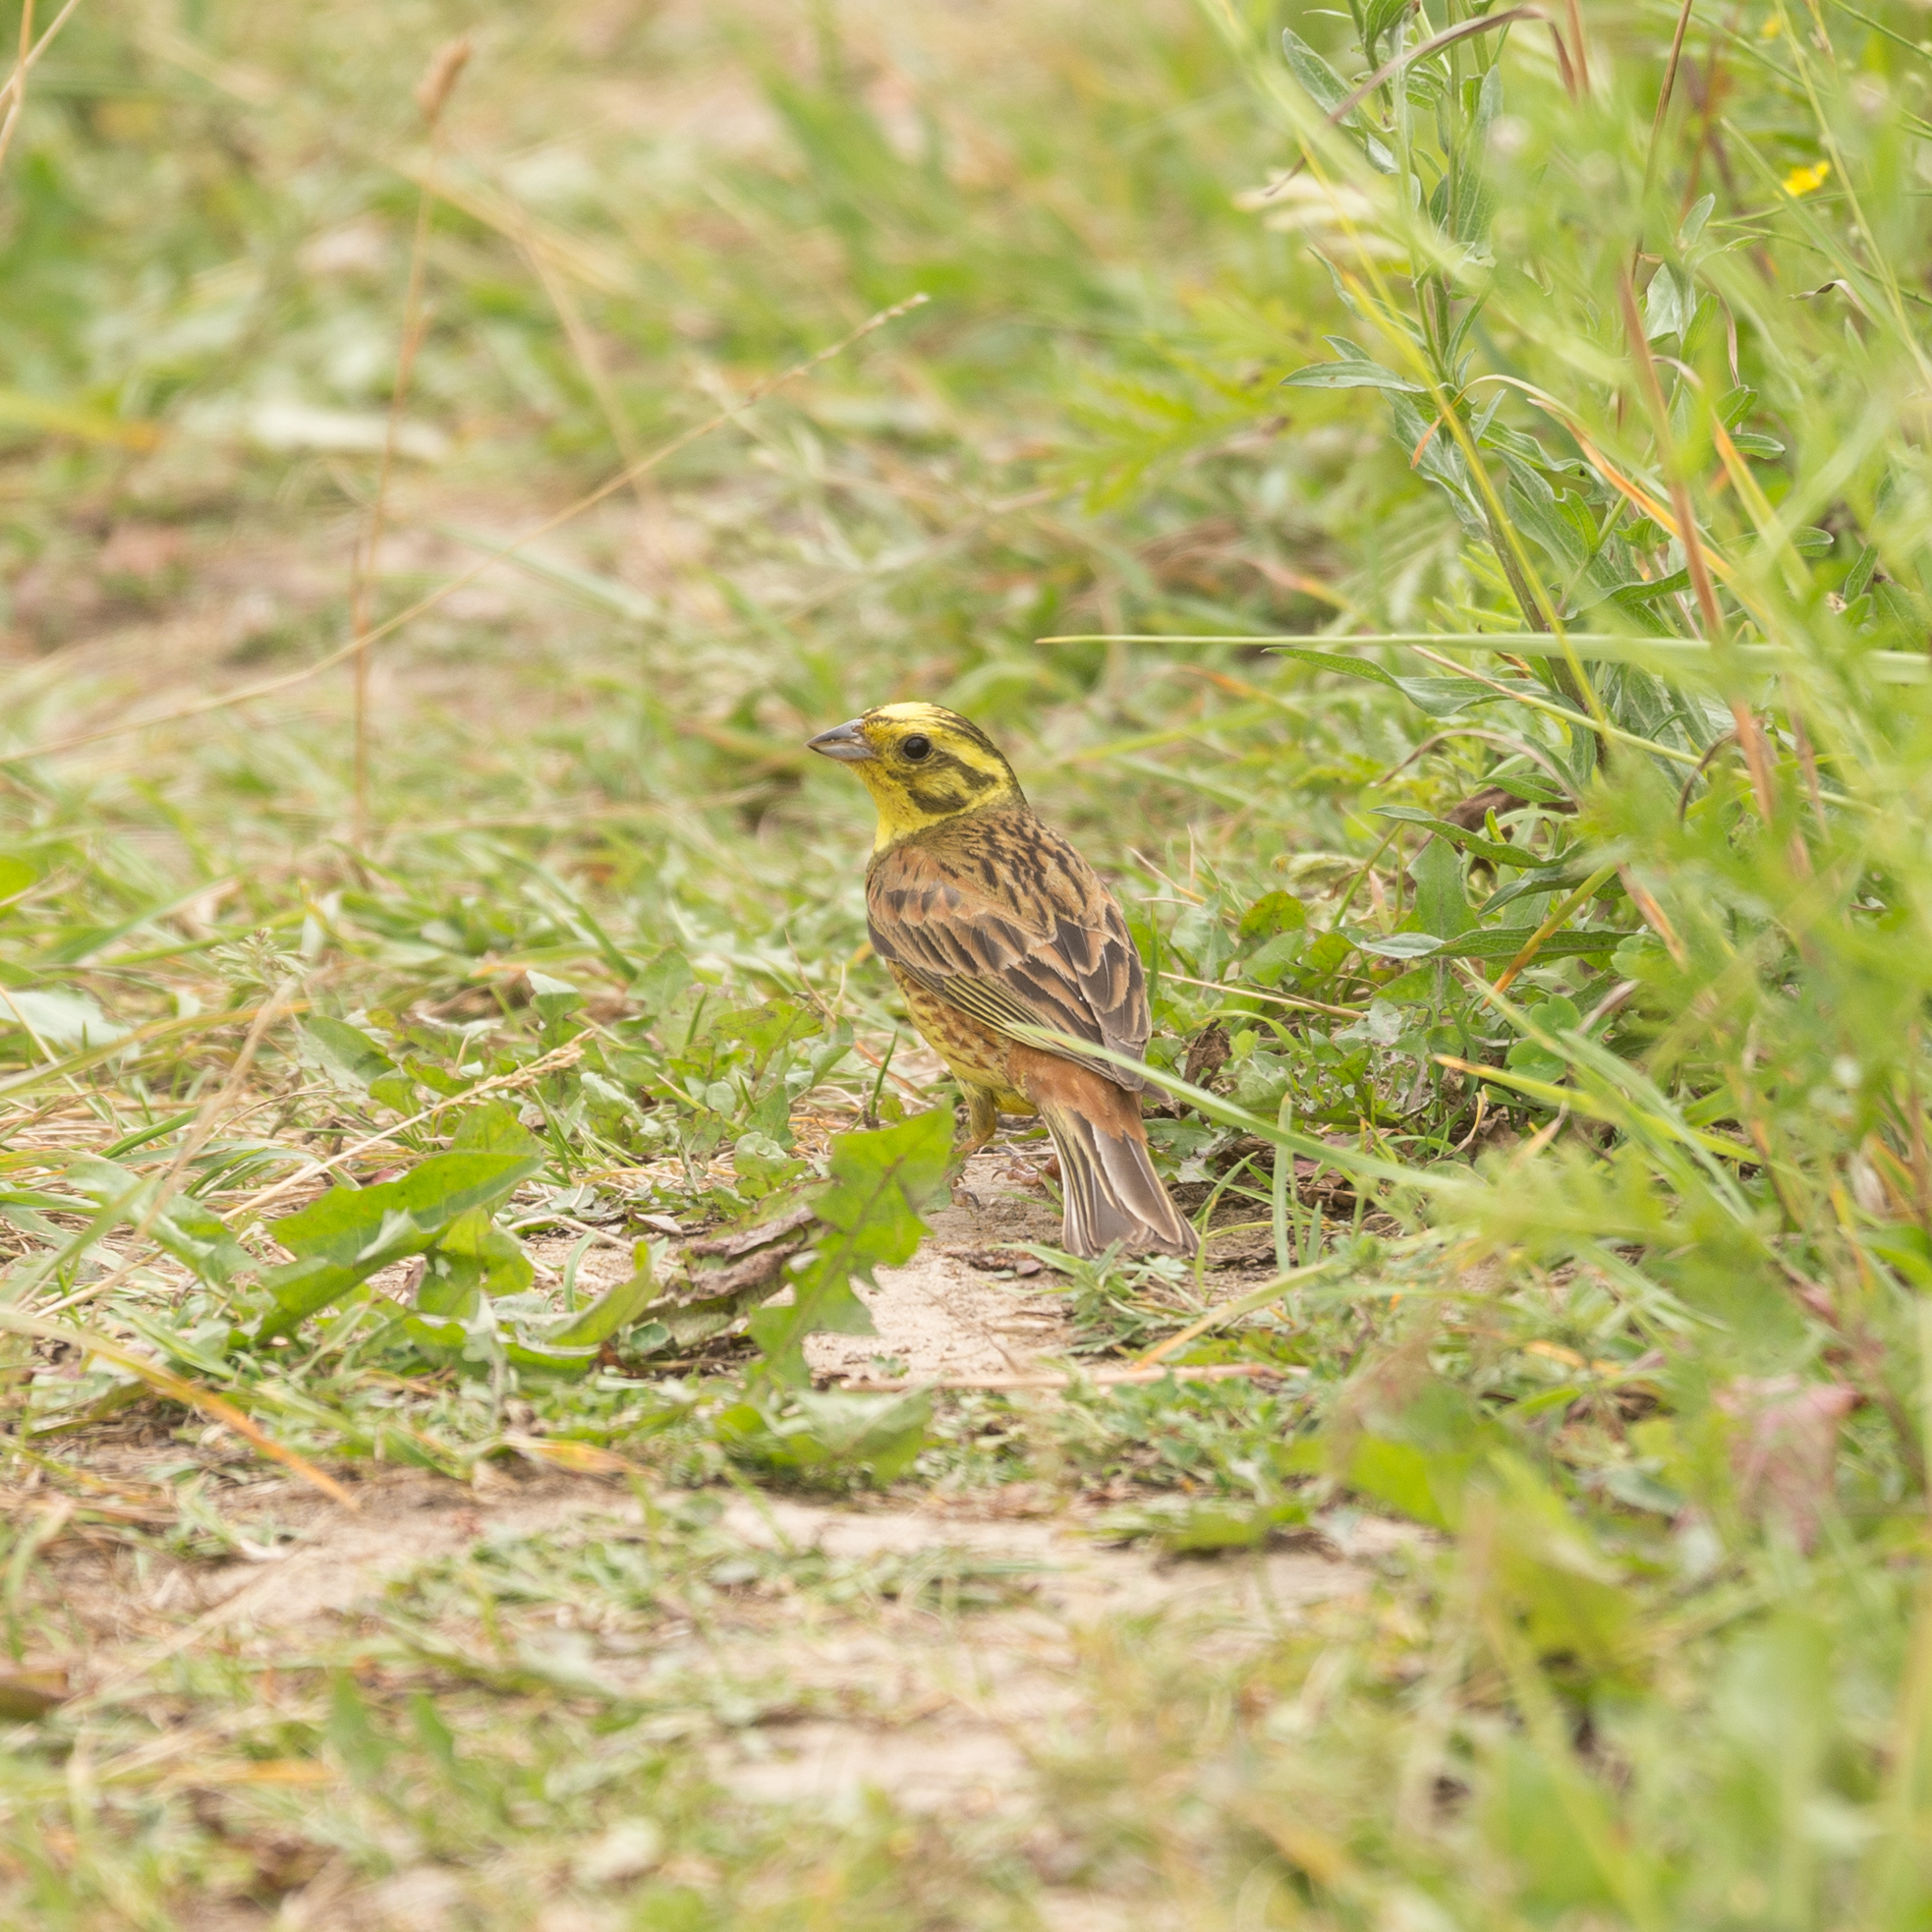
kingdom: Animalia
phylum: Chordata
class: Aves
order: Passeriformes
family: Emberizidae
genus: Emberiza
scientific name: Emberiza citrinella
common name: Yellowhammer
